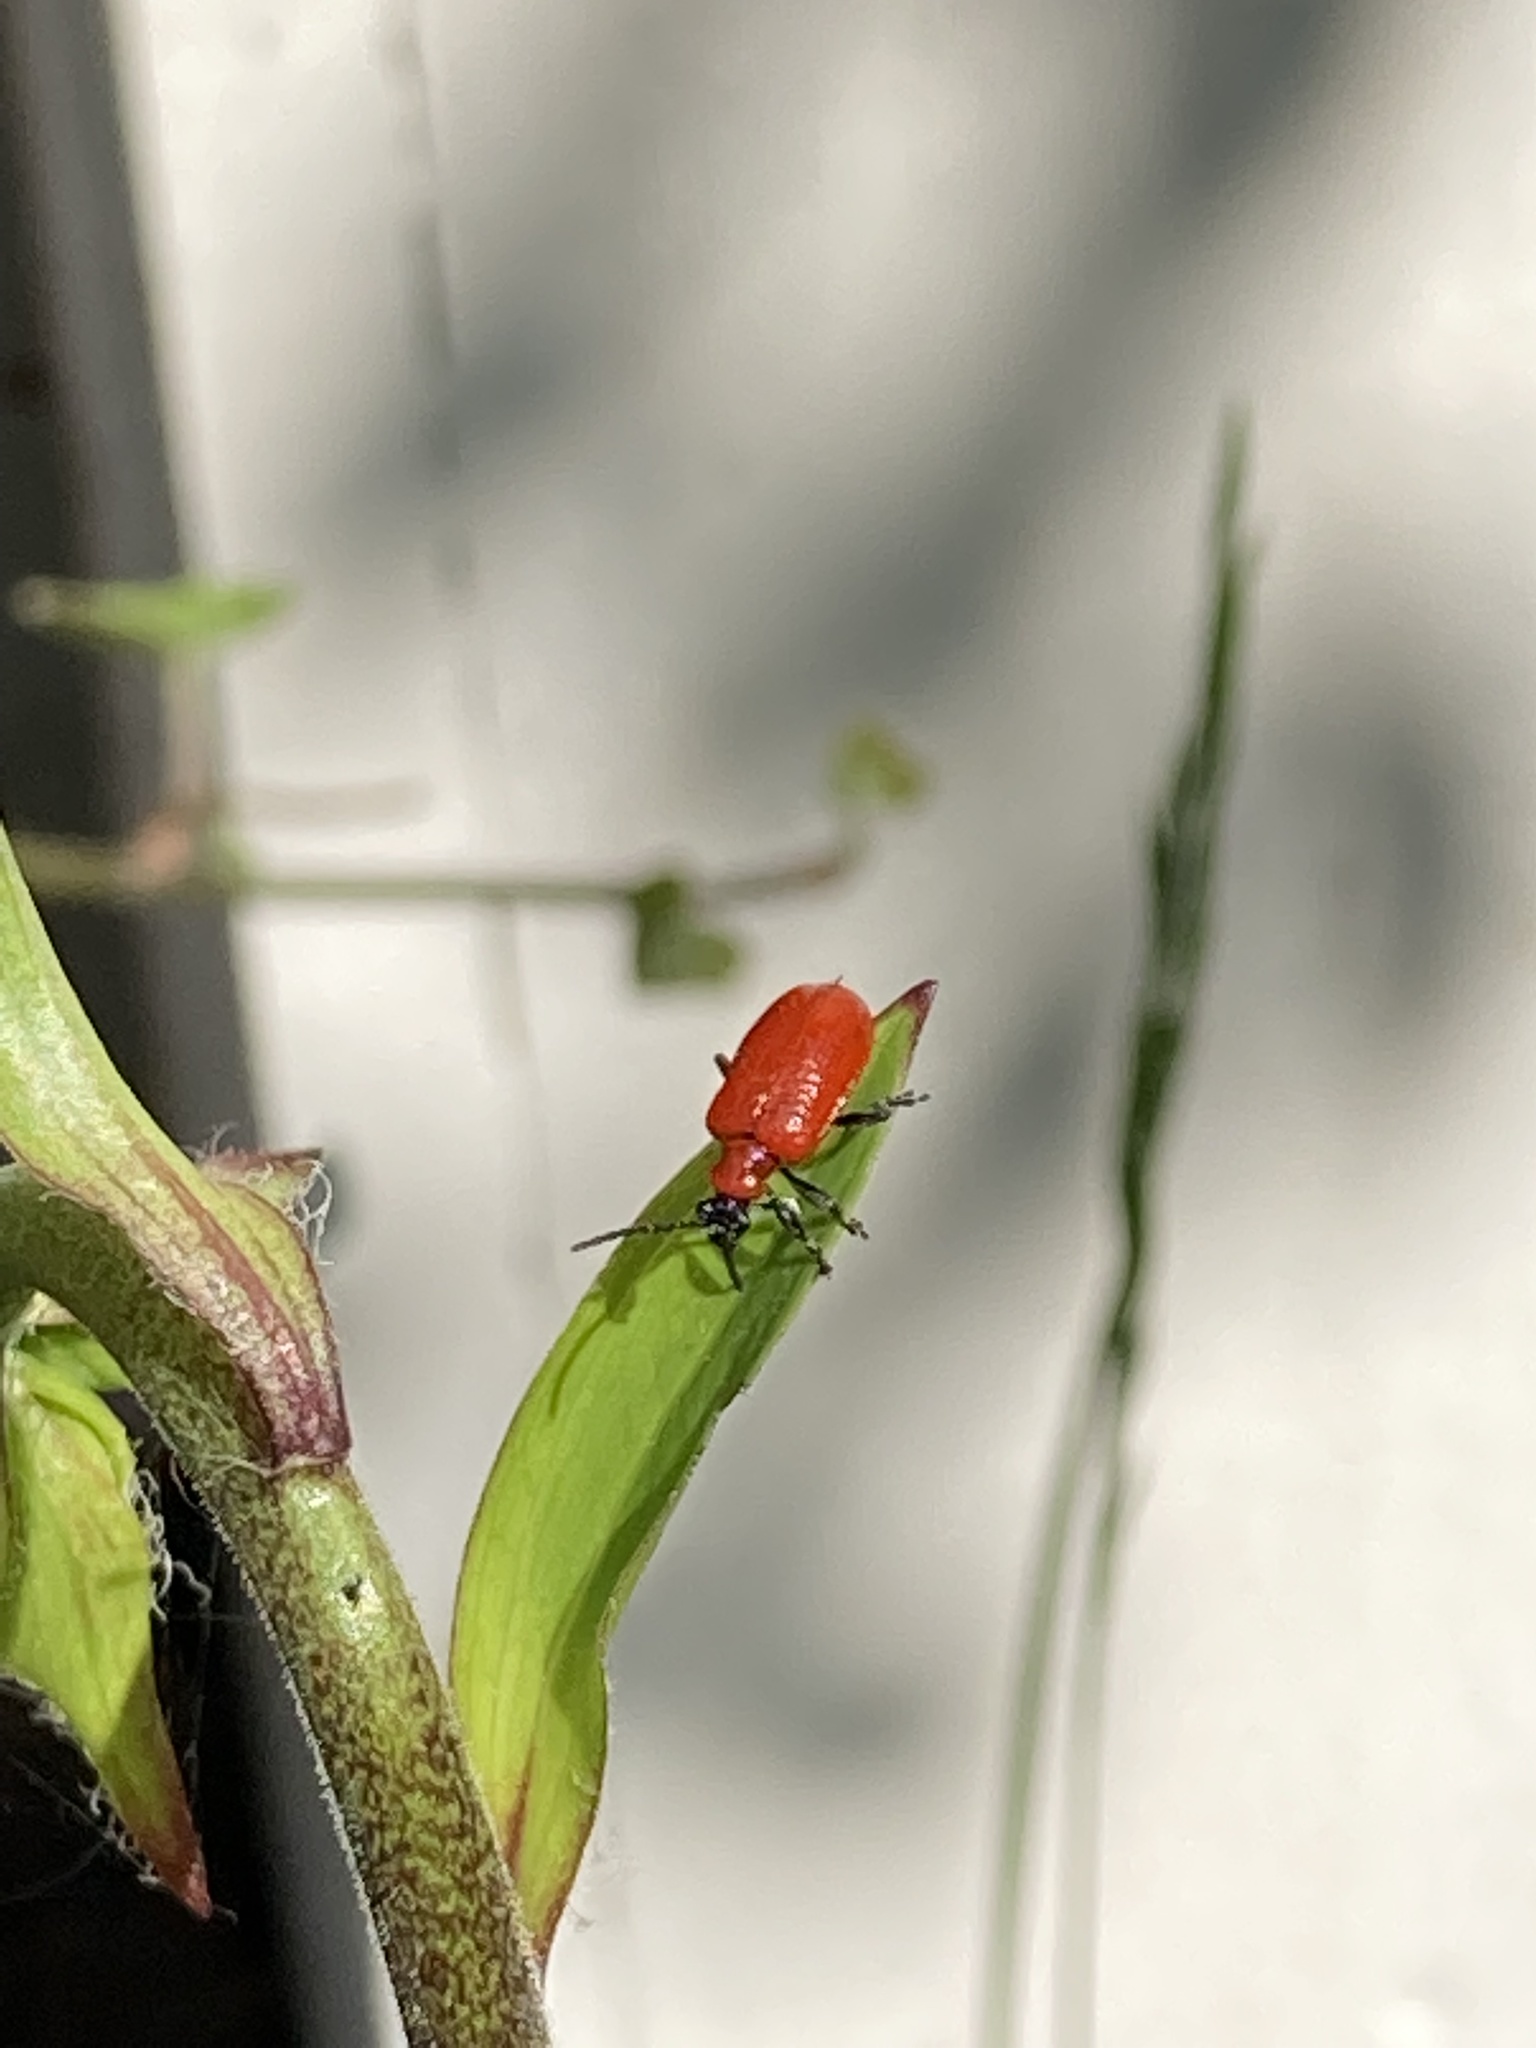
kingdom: Animalia
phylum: Arthropoda
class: Insecta
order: Coleoptera
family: Chrysomelidae
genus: Lilioceris
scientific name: Lilioceris lilii
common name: Lily beetle
